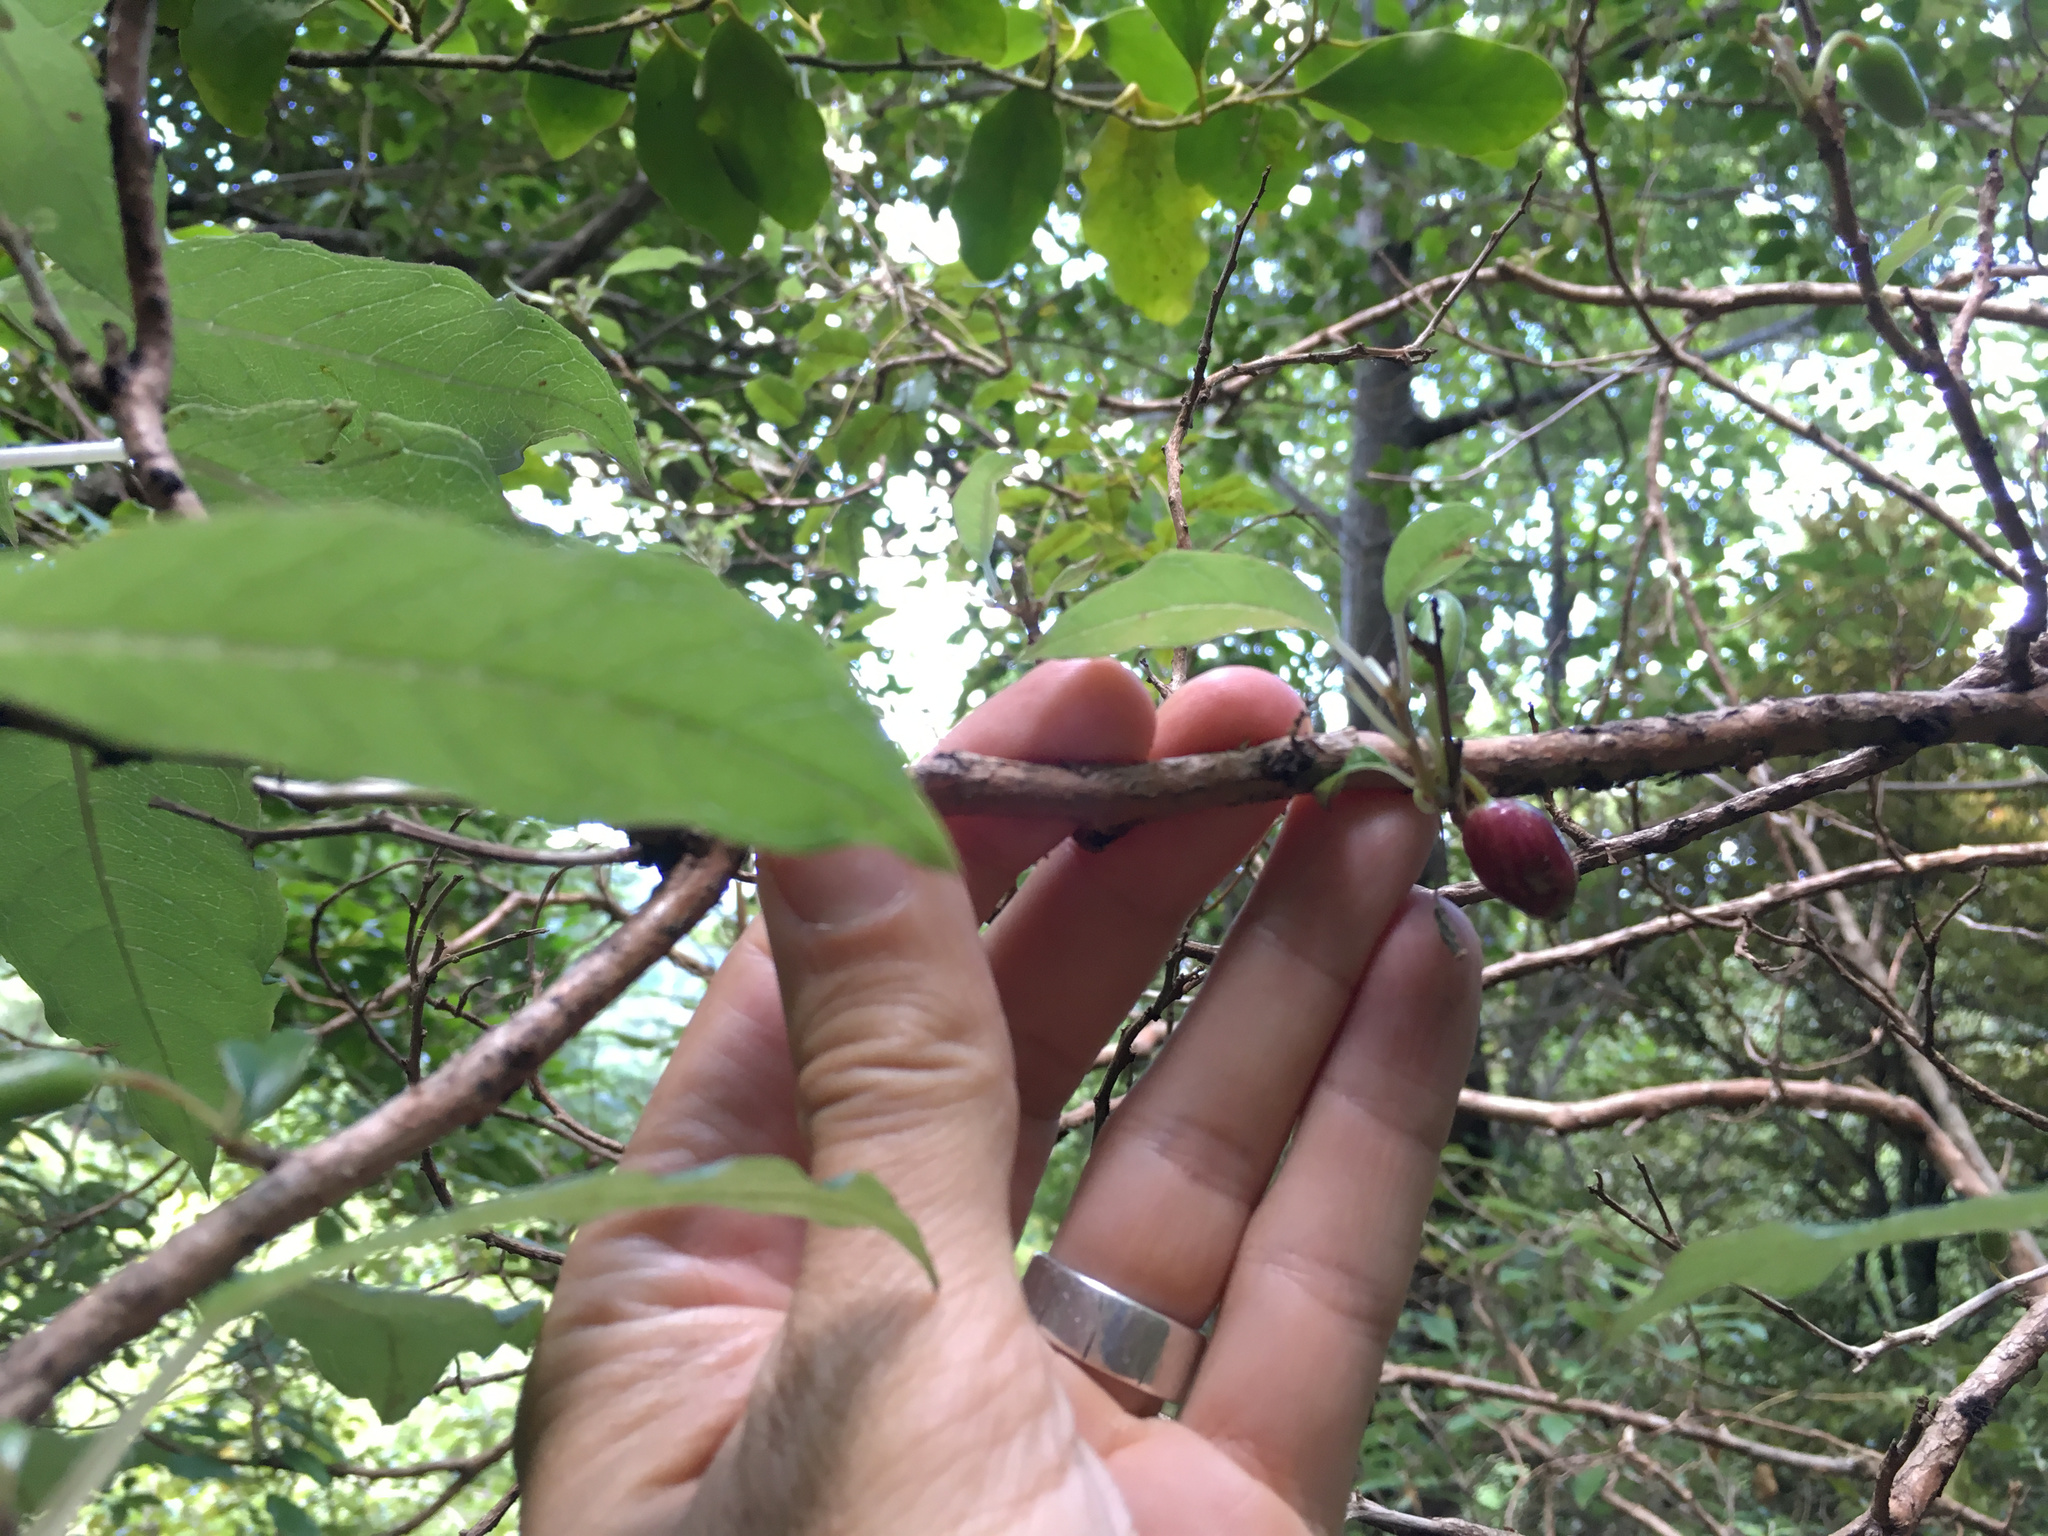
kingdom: Plantae
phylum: Tracheophyta
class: Magnoliopsida
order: Myrtales
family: Onagraceae
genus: Fuchsia
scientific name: Fuchsia excorticata
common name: Tree fuchsia
